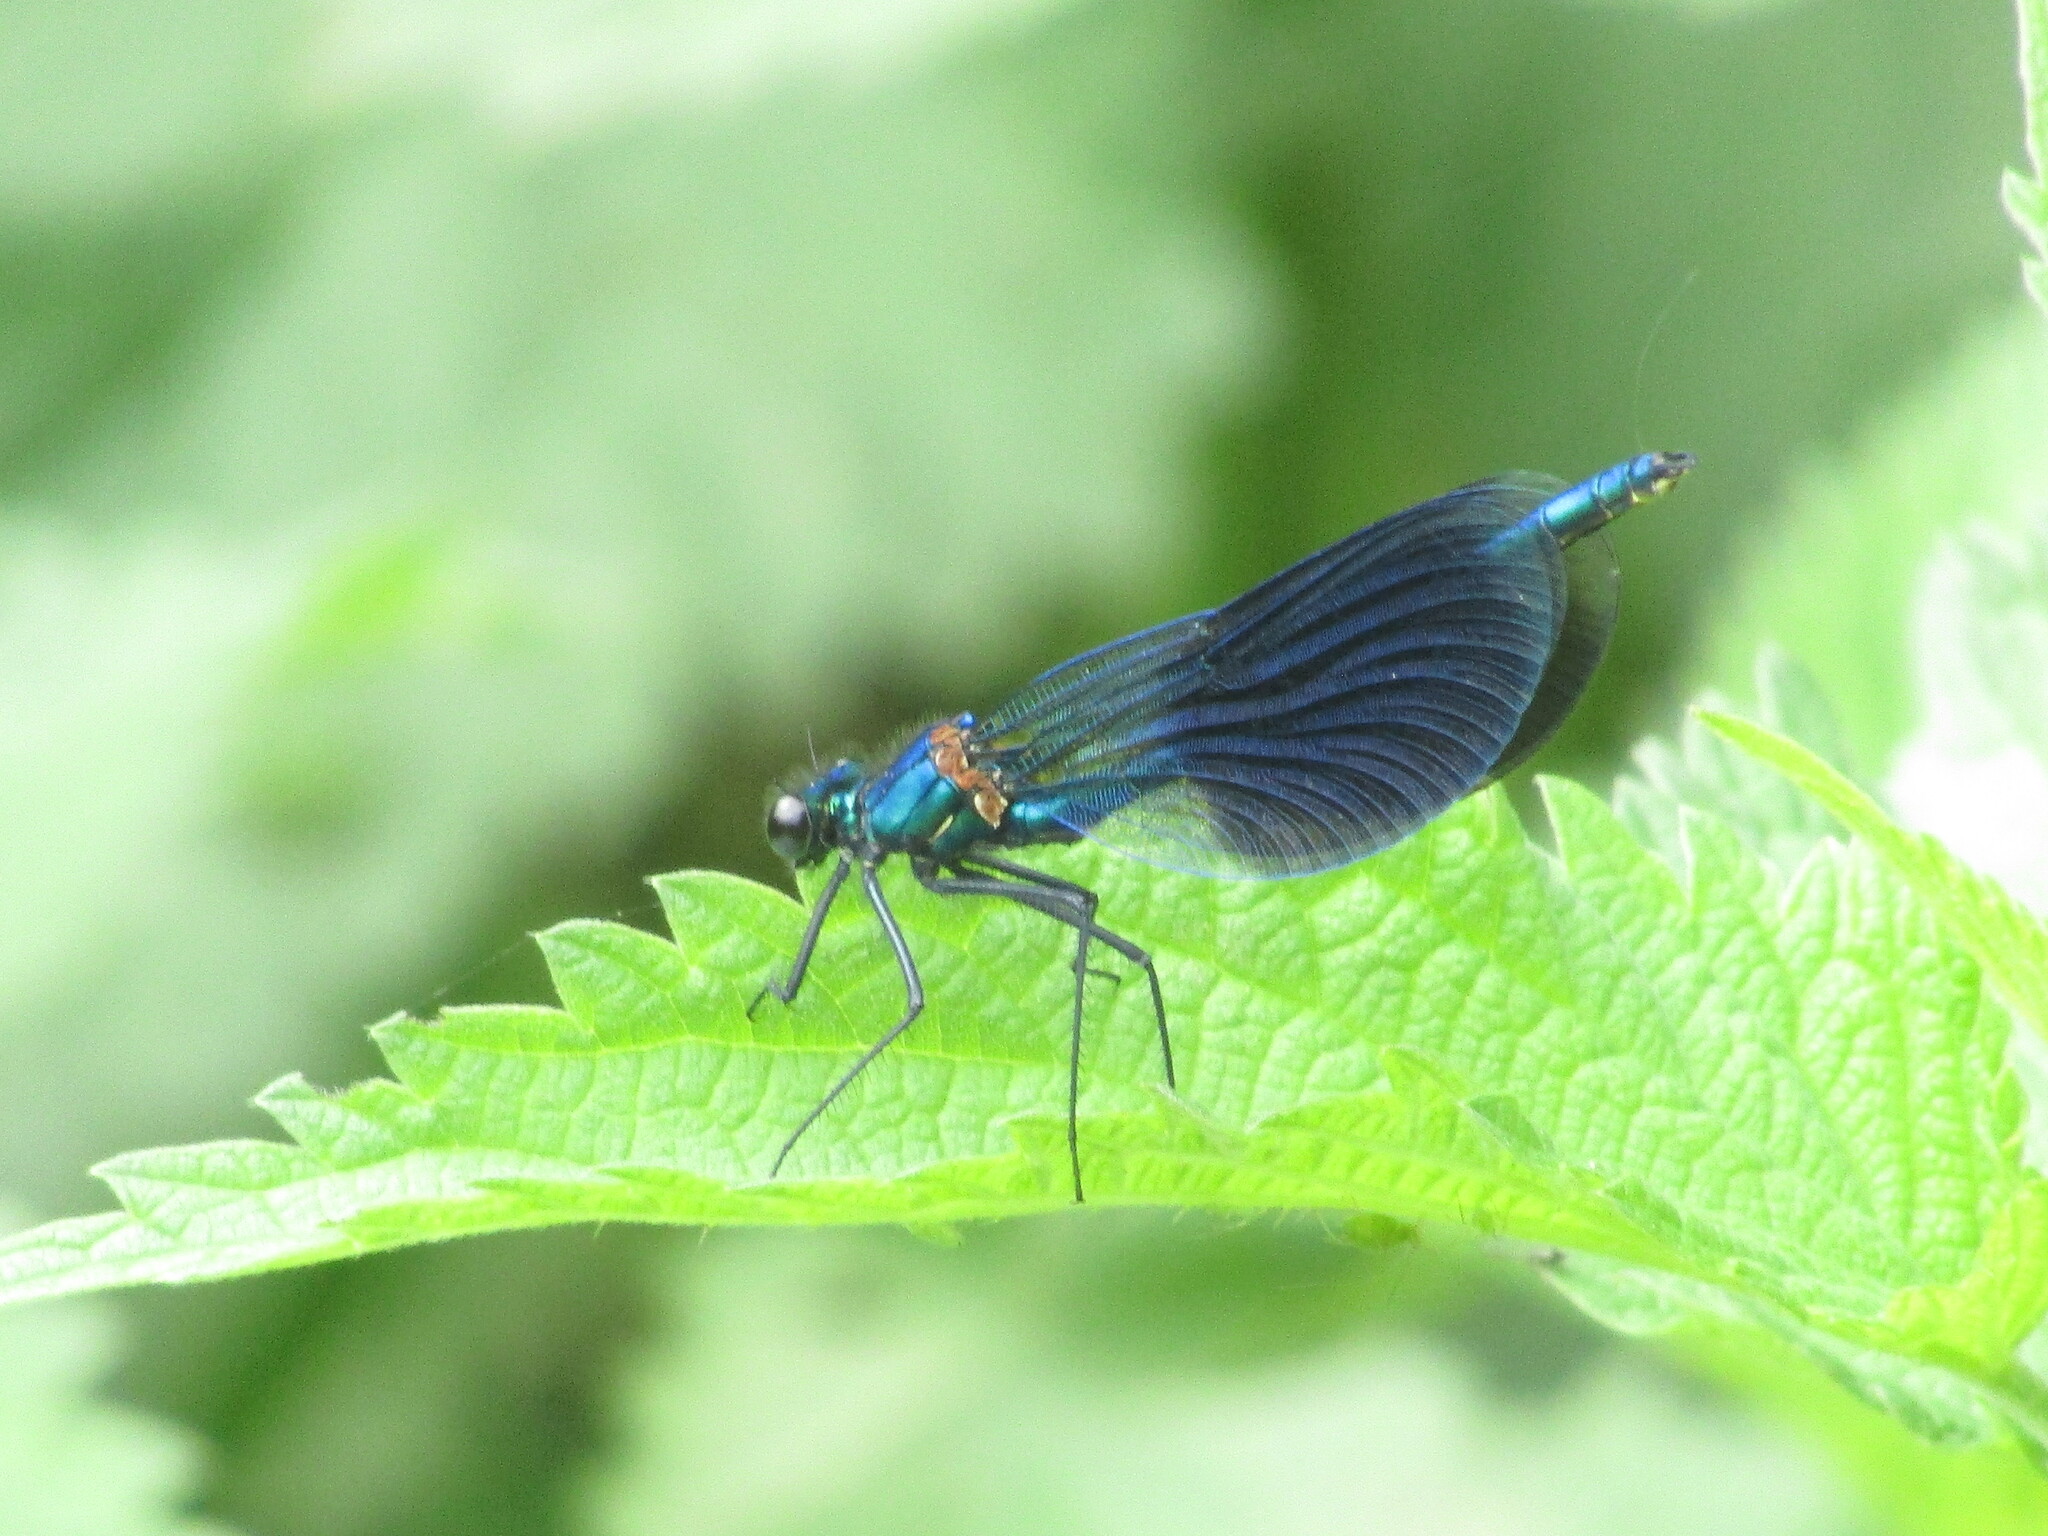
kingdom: Animalia
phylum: Arthropoda
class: Insecta
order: Odonata
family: Calopterygidae
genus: Calopteryx
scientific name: Calopteryx splendens
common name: Banded demoiselle
